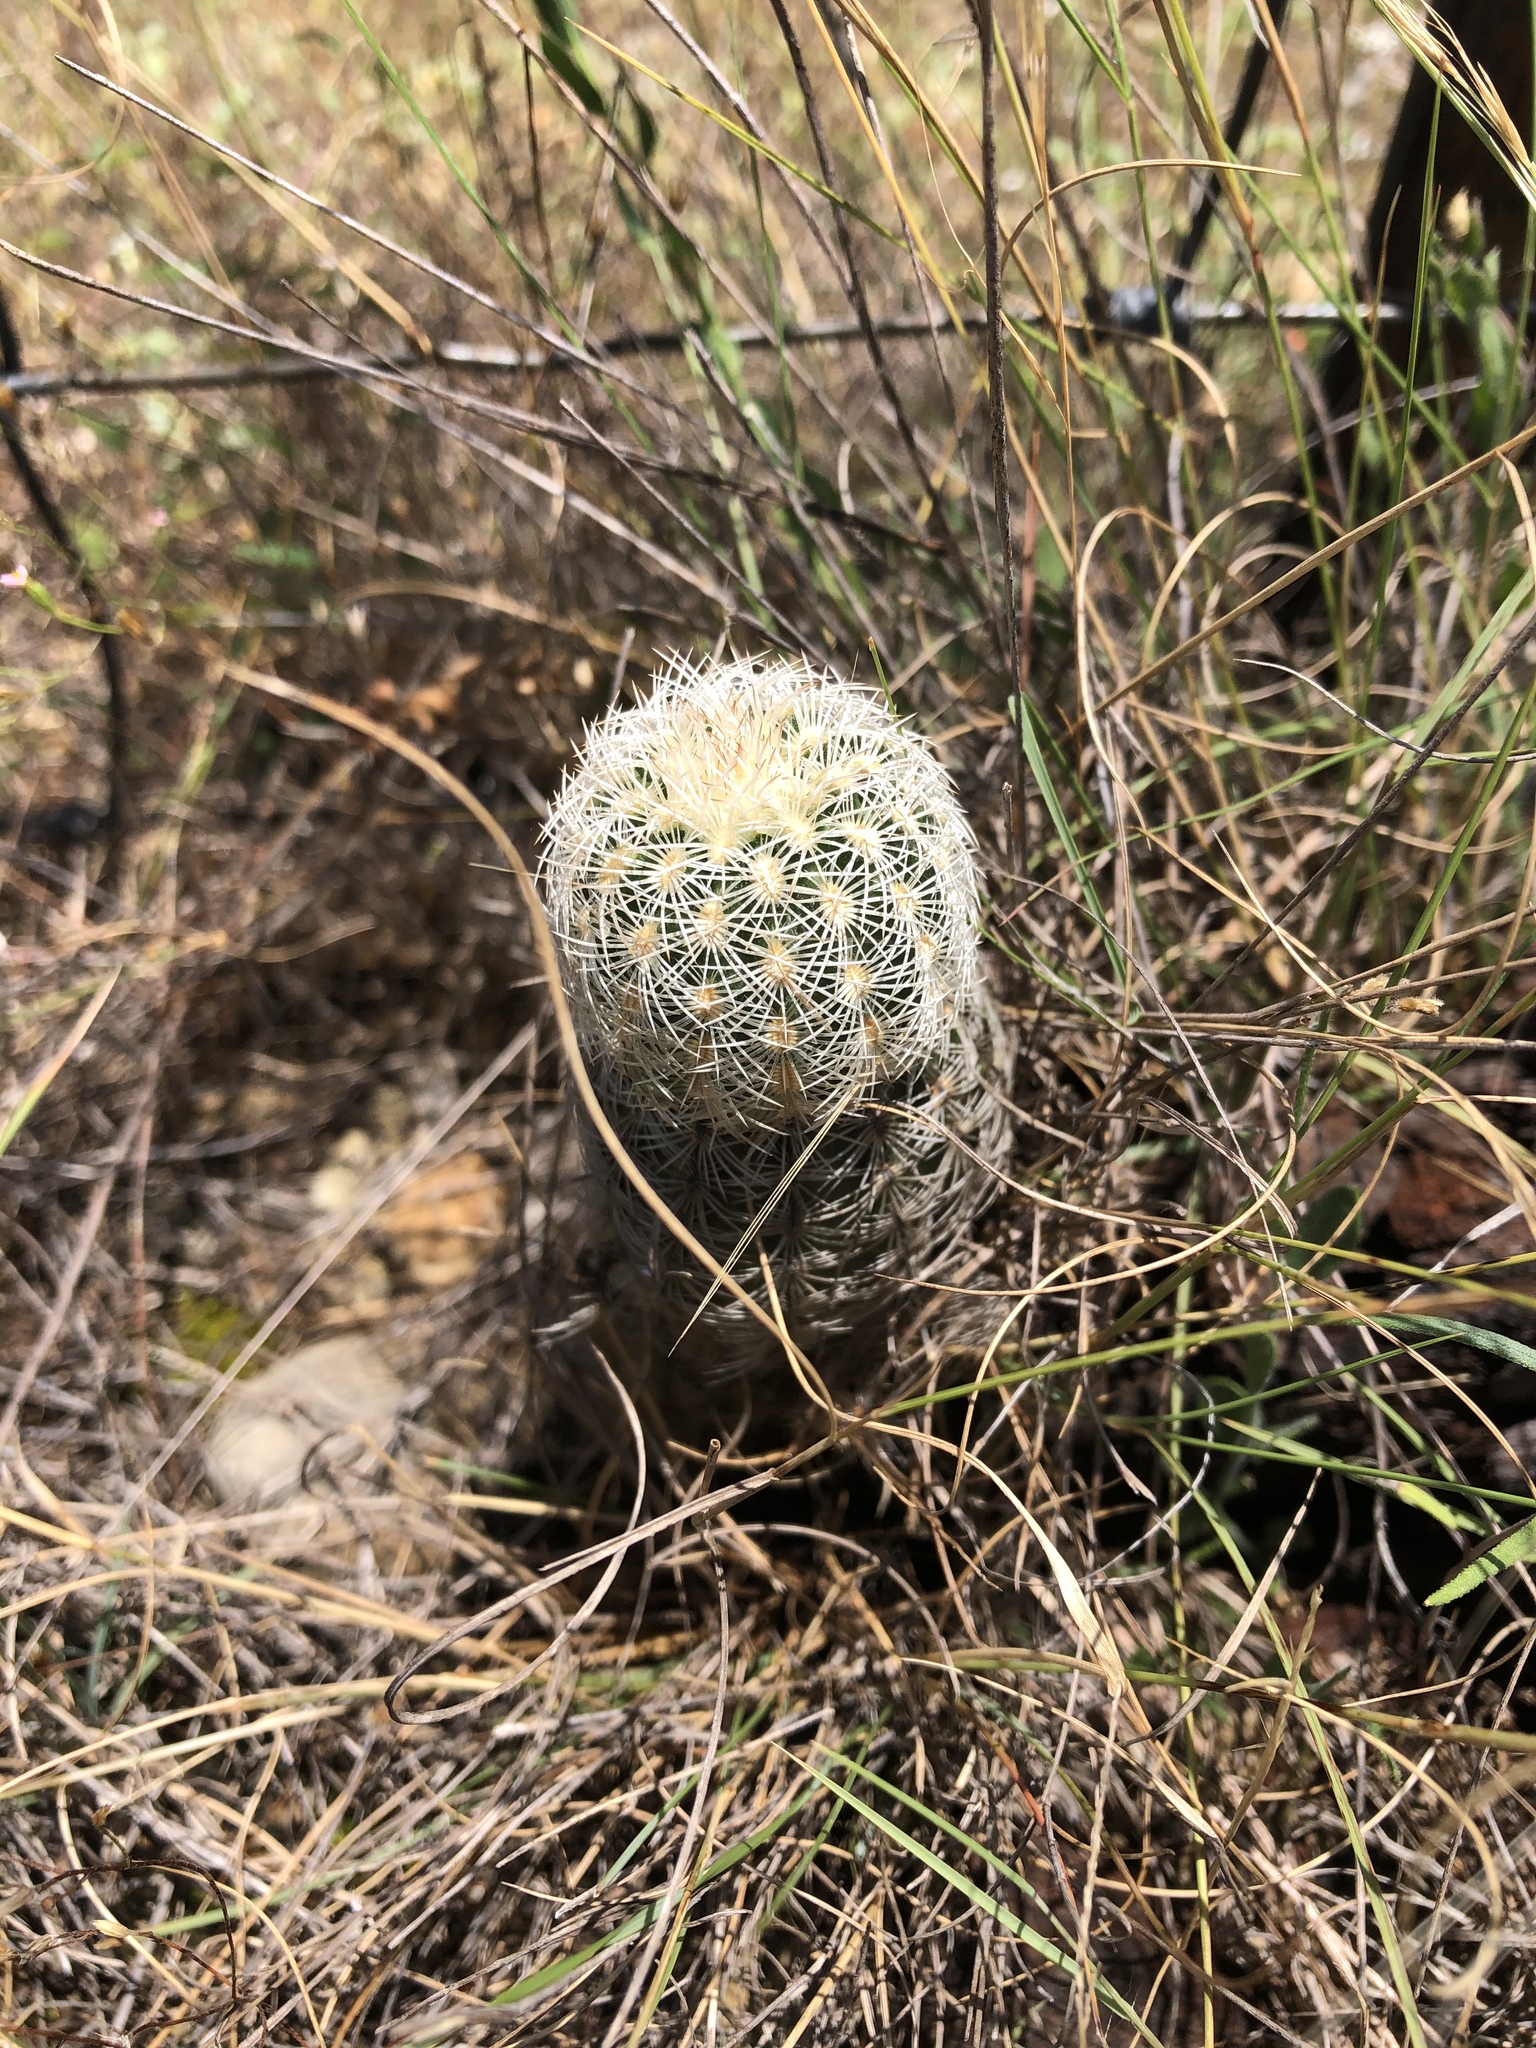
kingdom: Plantae
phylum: Tracheophyta
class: Magnoliopsida
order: Caryophyllales
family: Cactaceae
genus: Echinocereus
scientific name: Echinocereus reichenbachii
